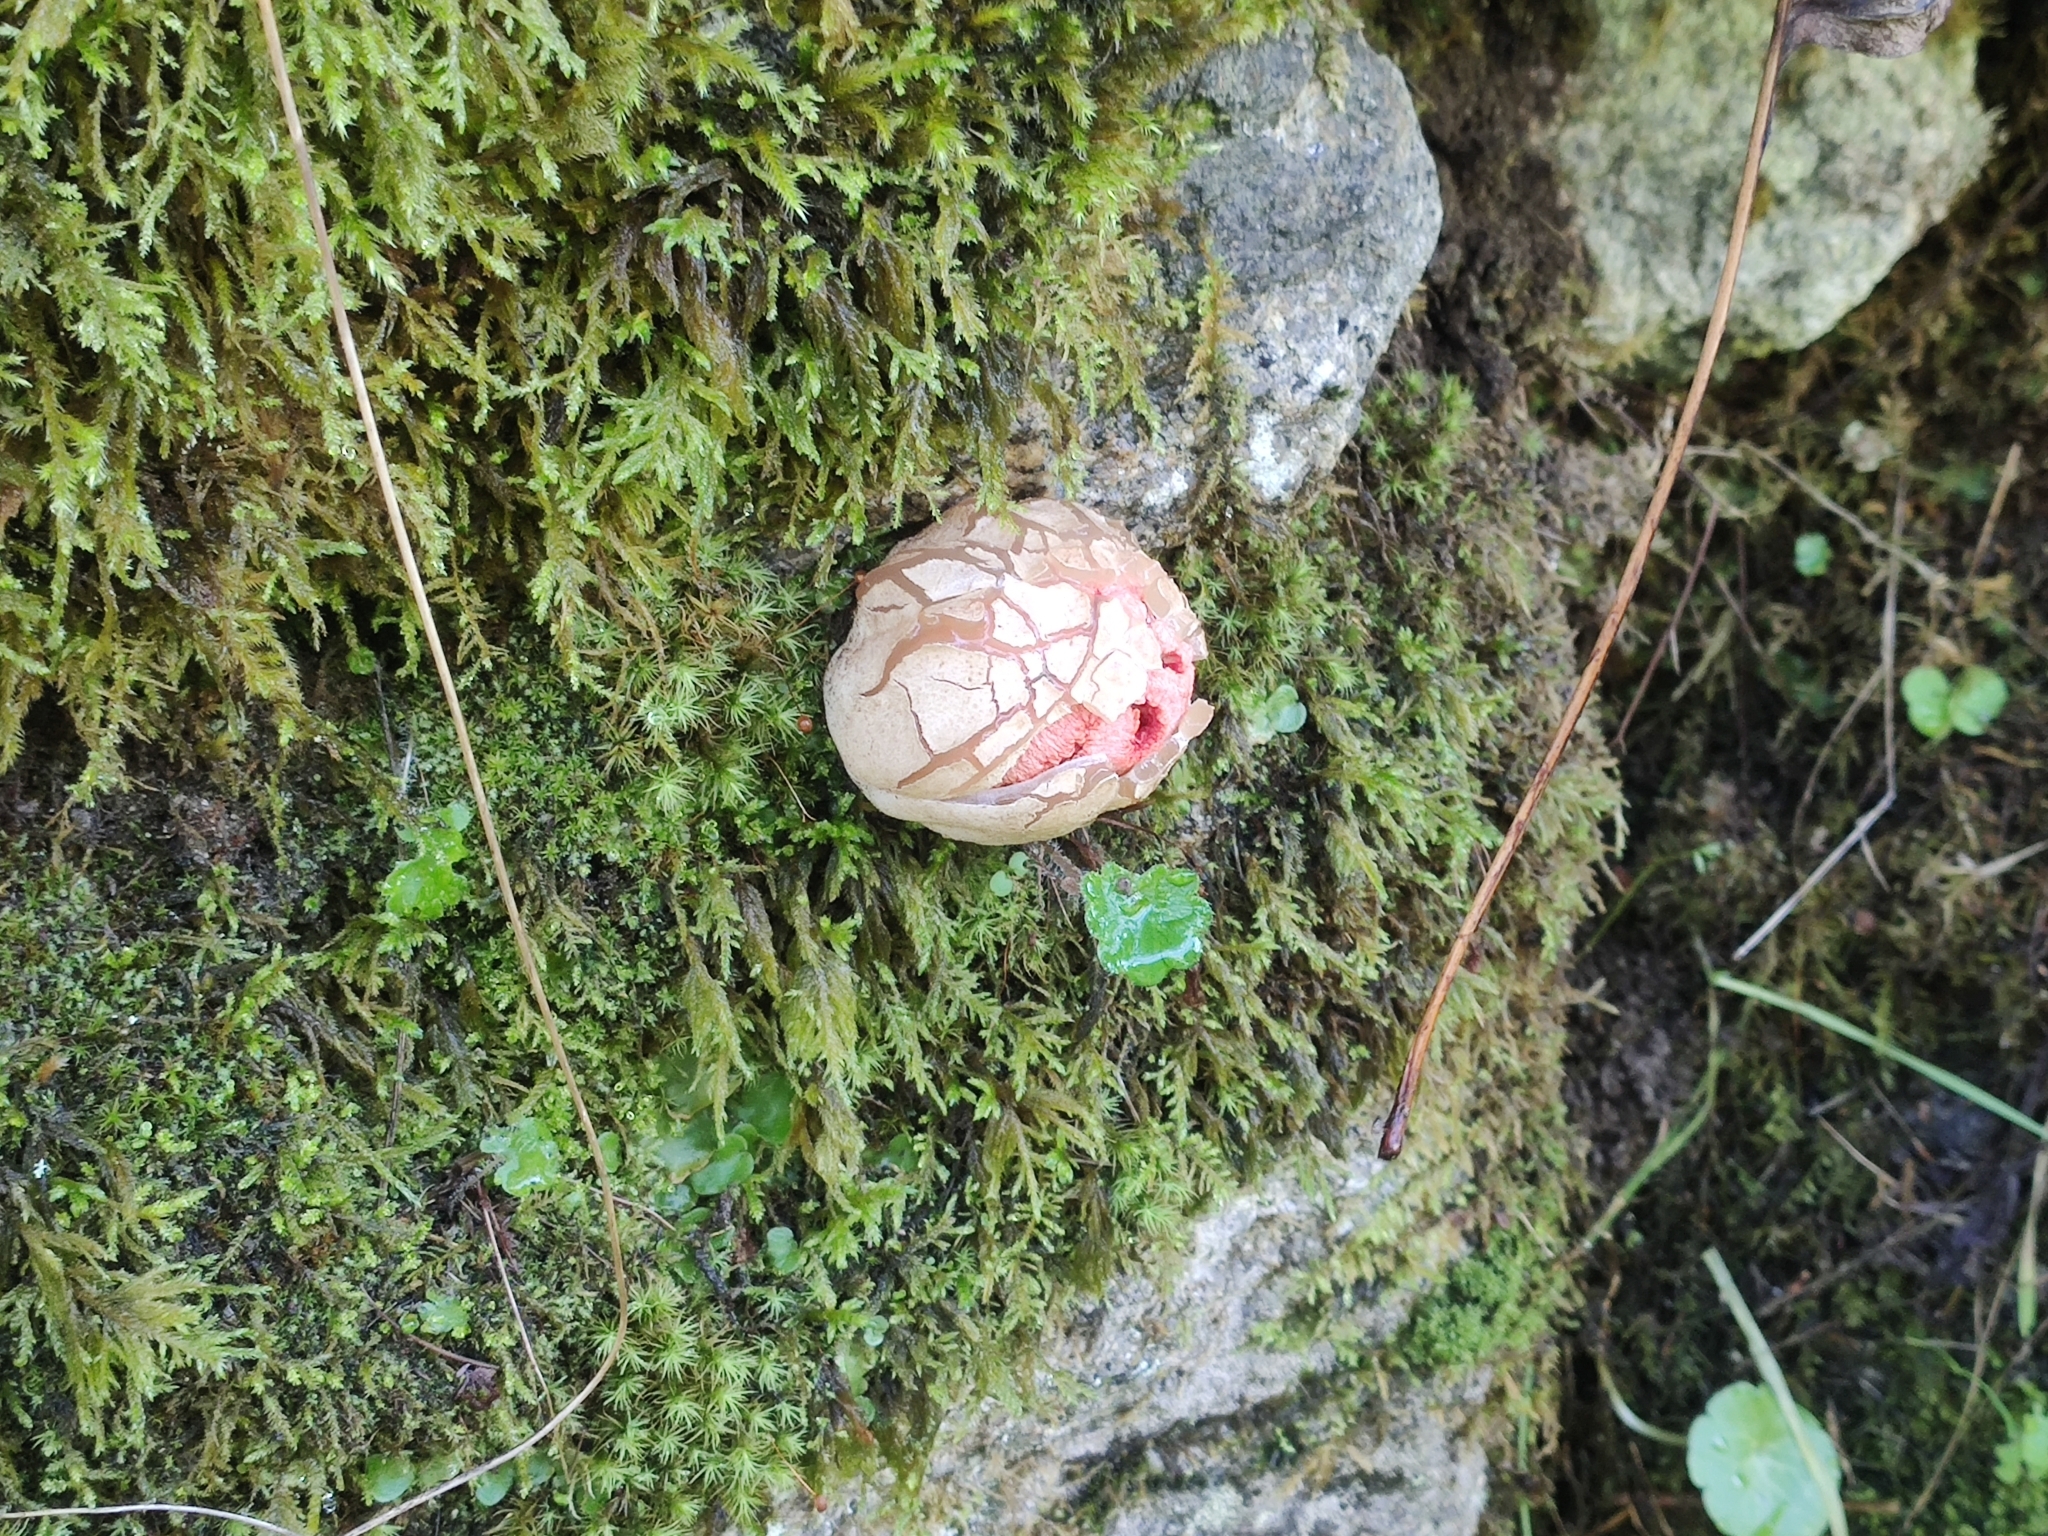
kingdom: Fungi
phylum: Basidiomycota
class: Agaricomycetes
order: Phallales
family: Phallaceae
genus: Clathrus
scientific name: Clathrus ruber
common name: Red cage
